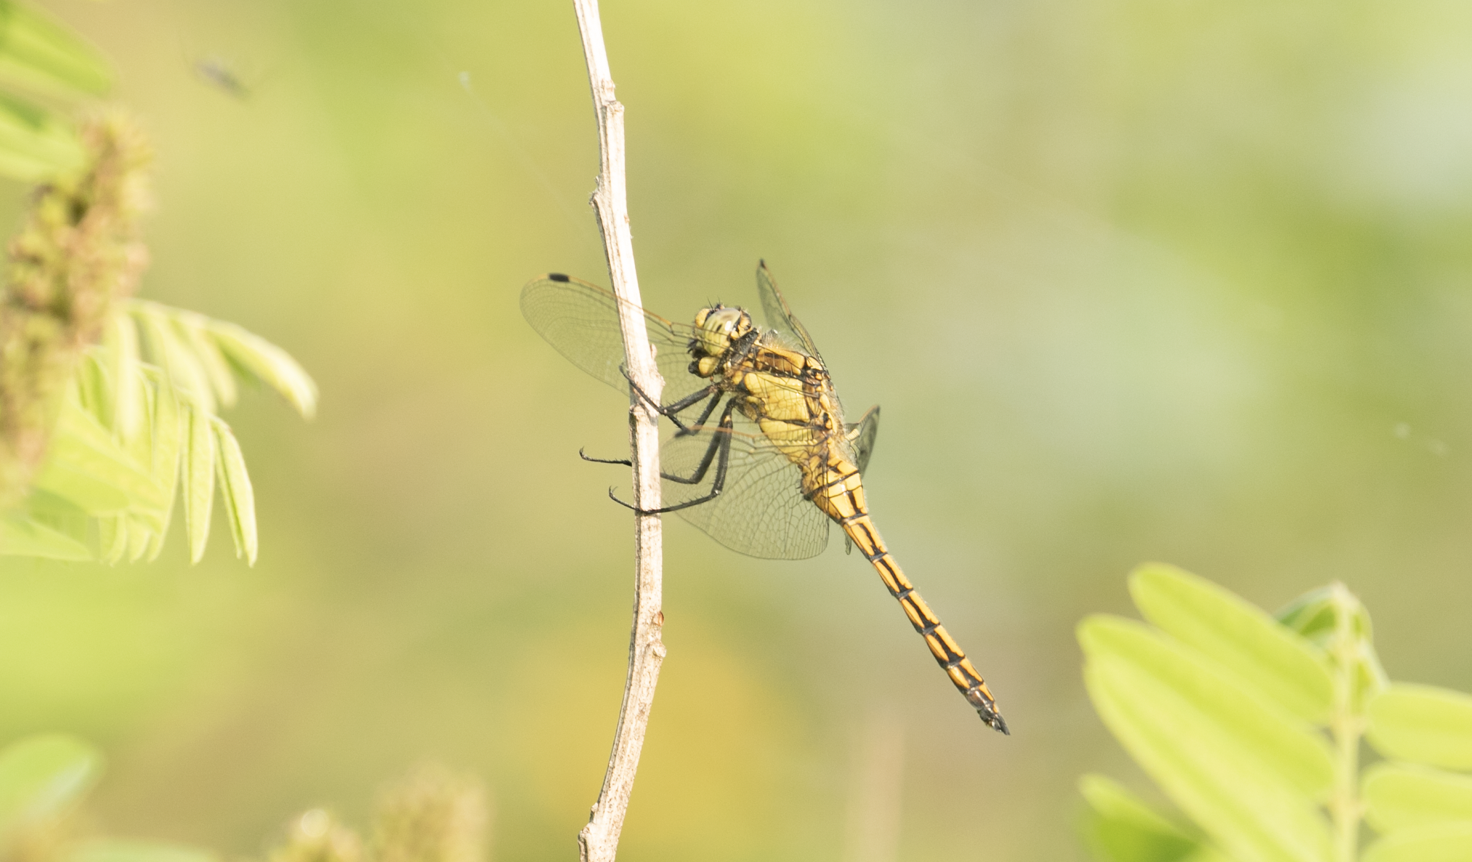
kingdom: Animalia
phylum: Arthropoda
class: Insecta
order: Odonata
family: Libellulidae
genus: Orthetrum
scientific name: Orthetrum cancellatum
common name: Black-tailed skimmer
